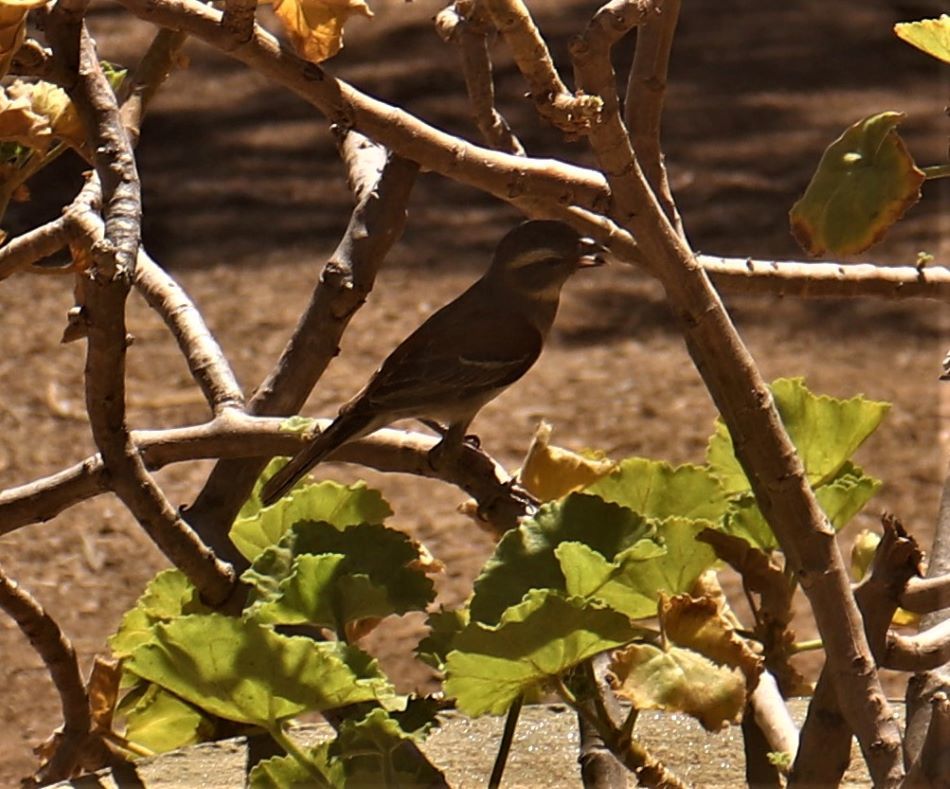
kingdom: Animalia
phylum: Chordata
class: Aves
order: Passeriformes
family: Passeridae
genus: Passer
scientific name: Passer melanurus
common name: Cape sparrow
